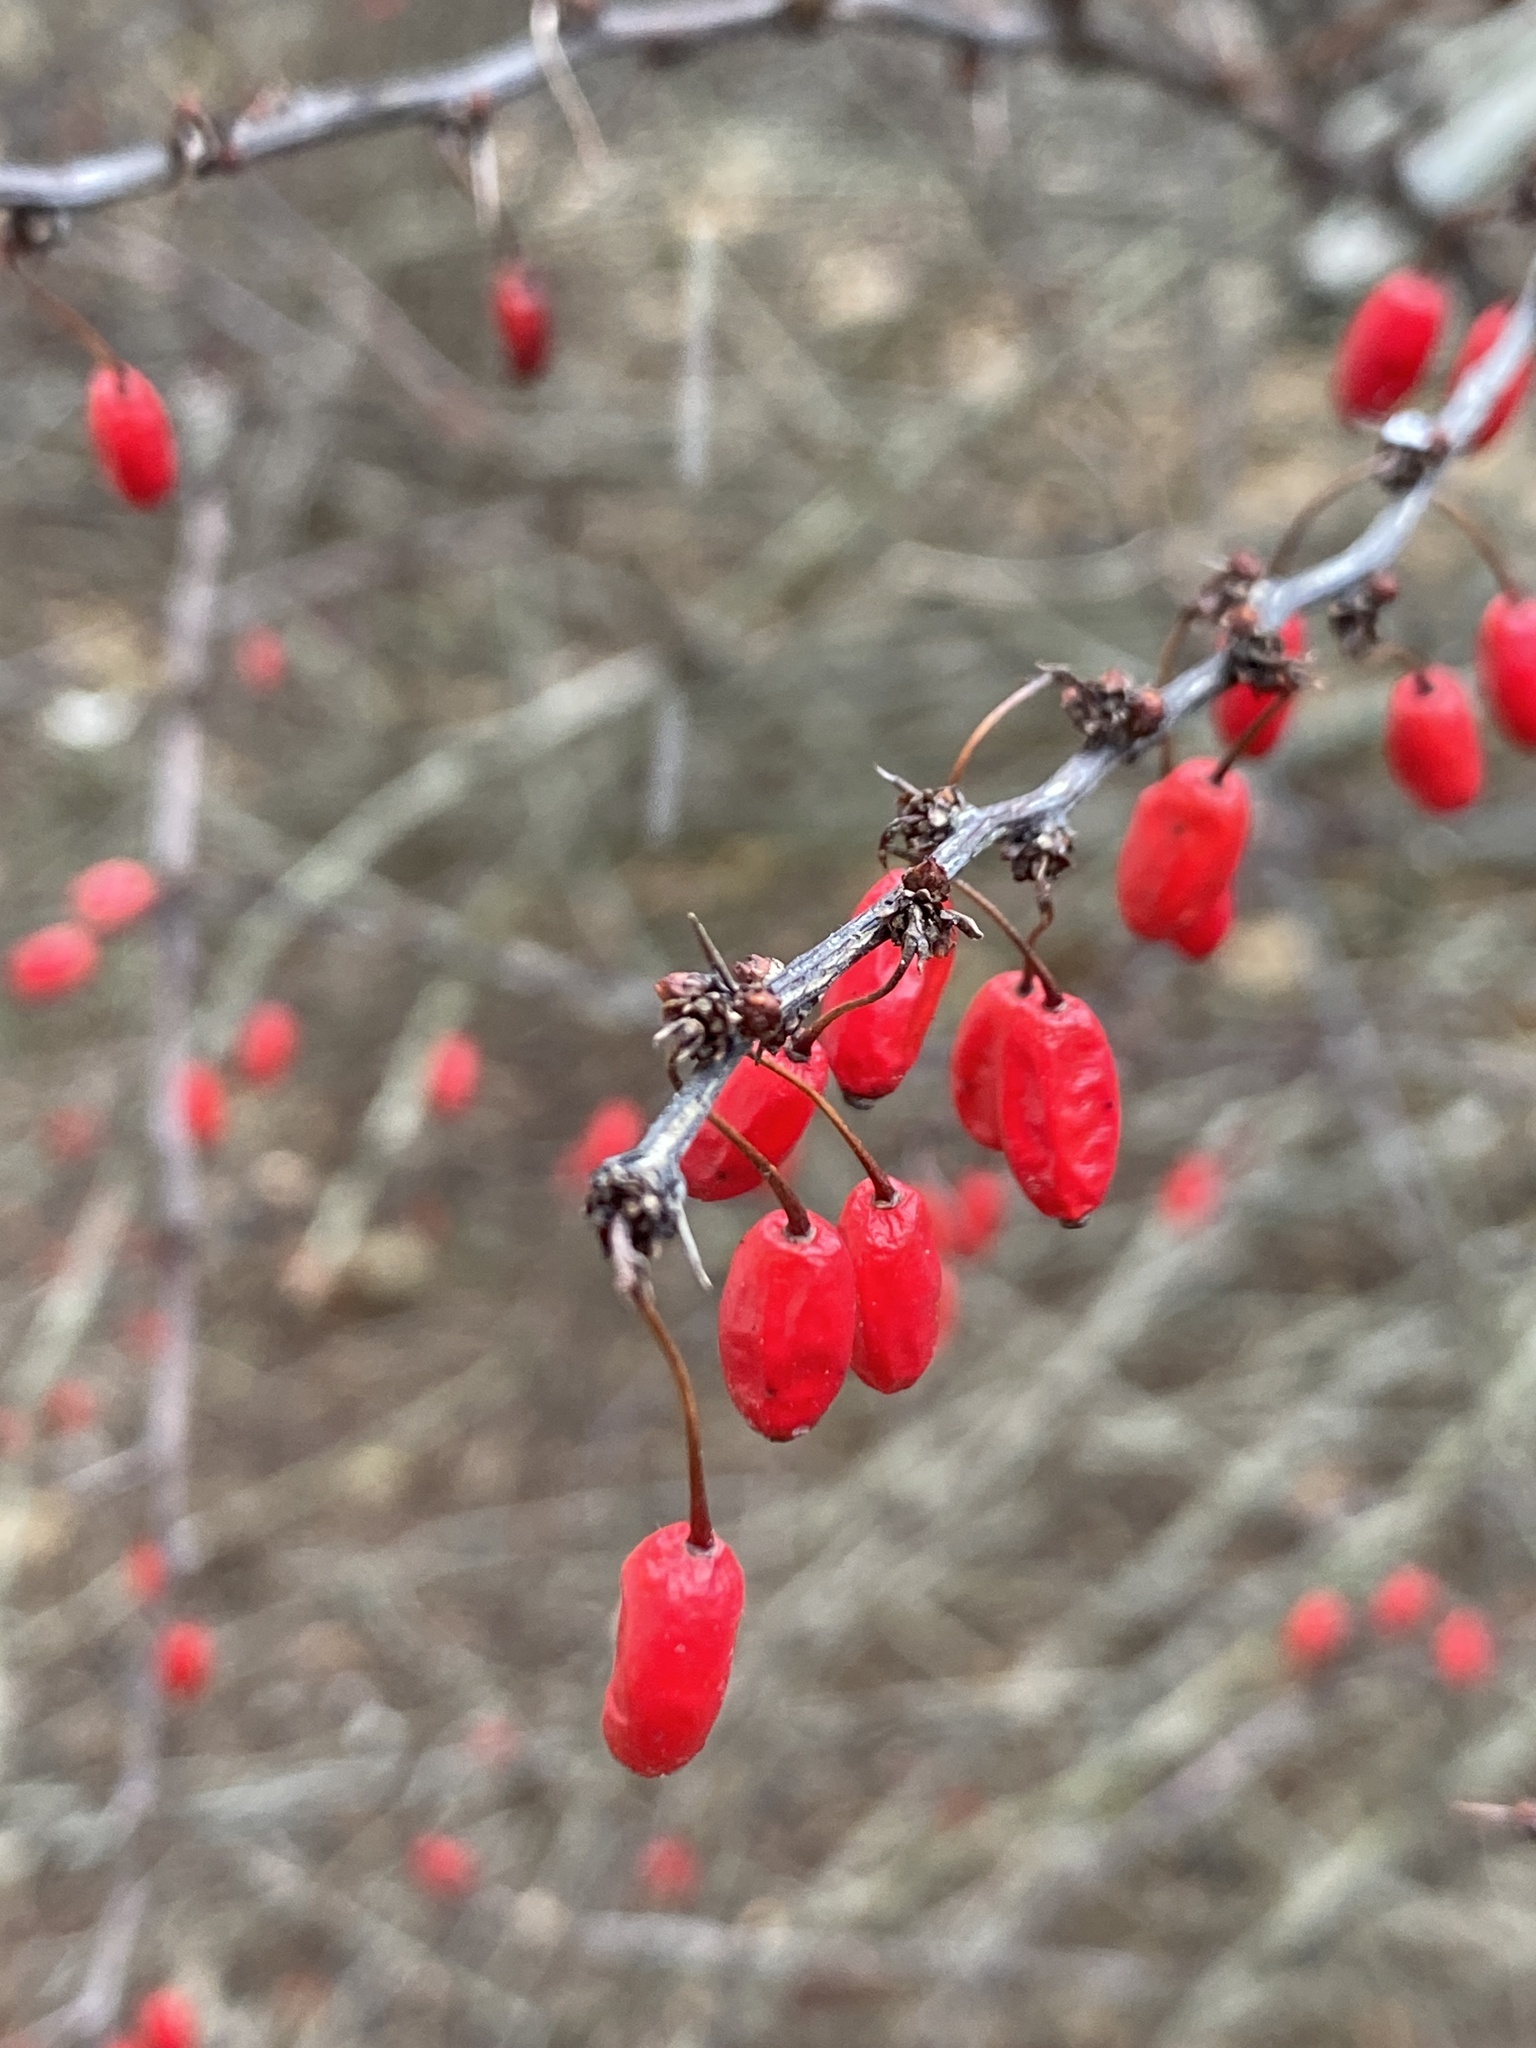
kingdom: Plantae
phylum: Tracheophyta
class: Magnoliopsida
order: Ranunculales
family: Berberidaceae
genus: Berberis
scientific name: Berberis thunbergii
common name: Japanese barberry
